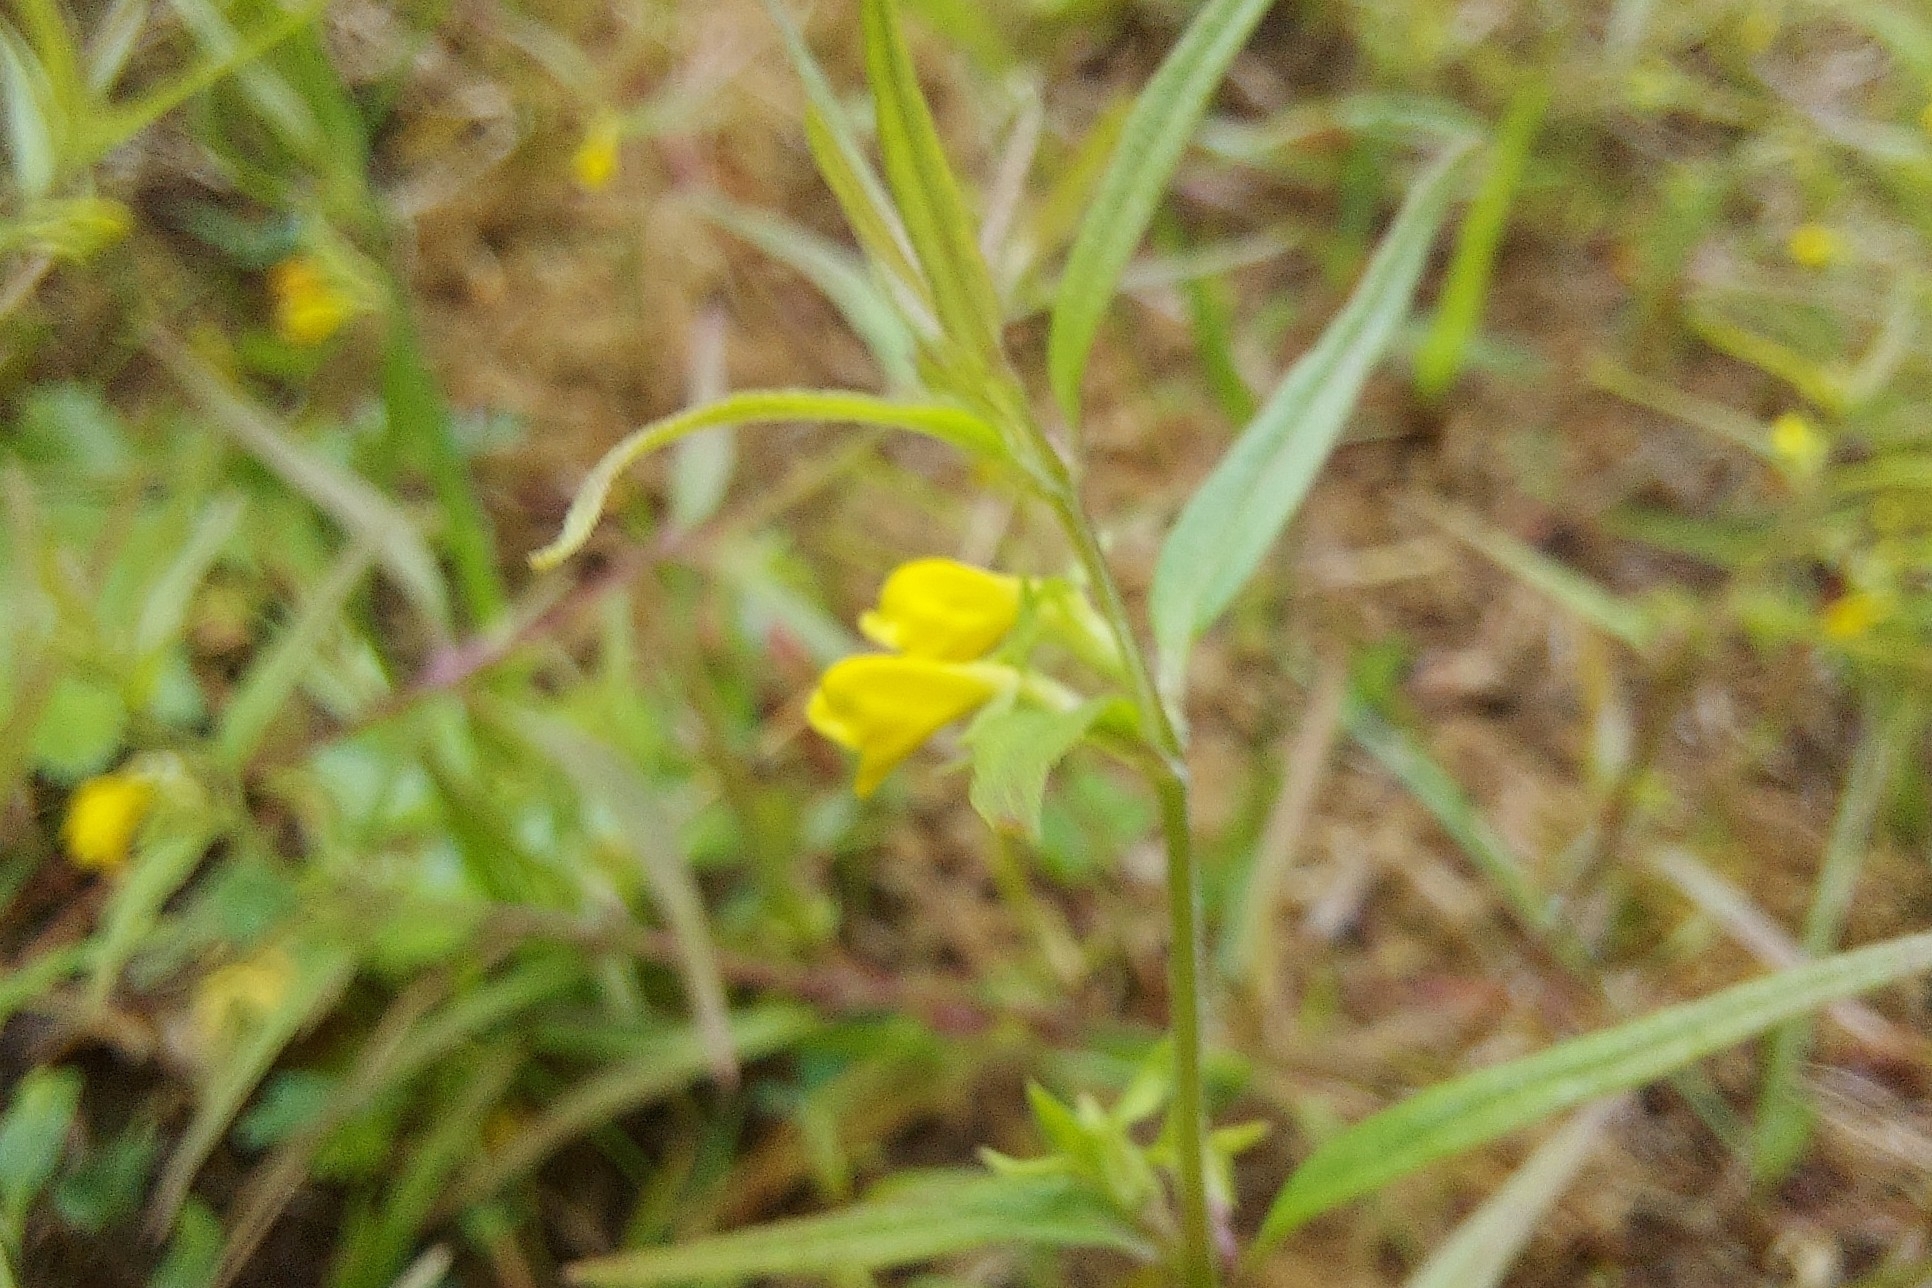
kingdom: Plantae
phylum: Tracheophyta
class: Magnoliopsida
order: Lamiales
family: Orobanchaceae
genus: Melampyrum
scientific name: Melampyrum sylvaticum
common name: Small cow-wheat
